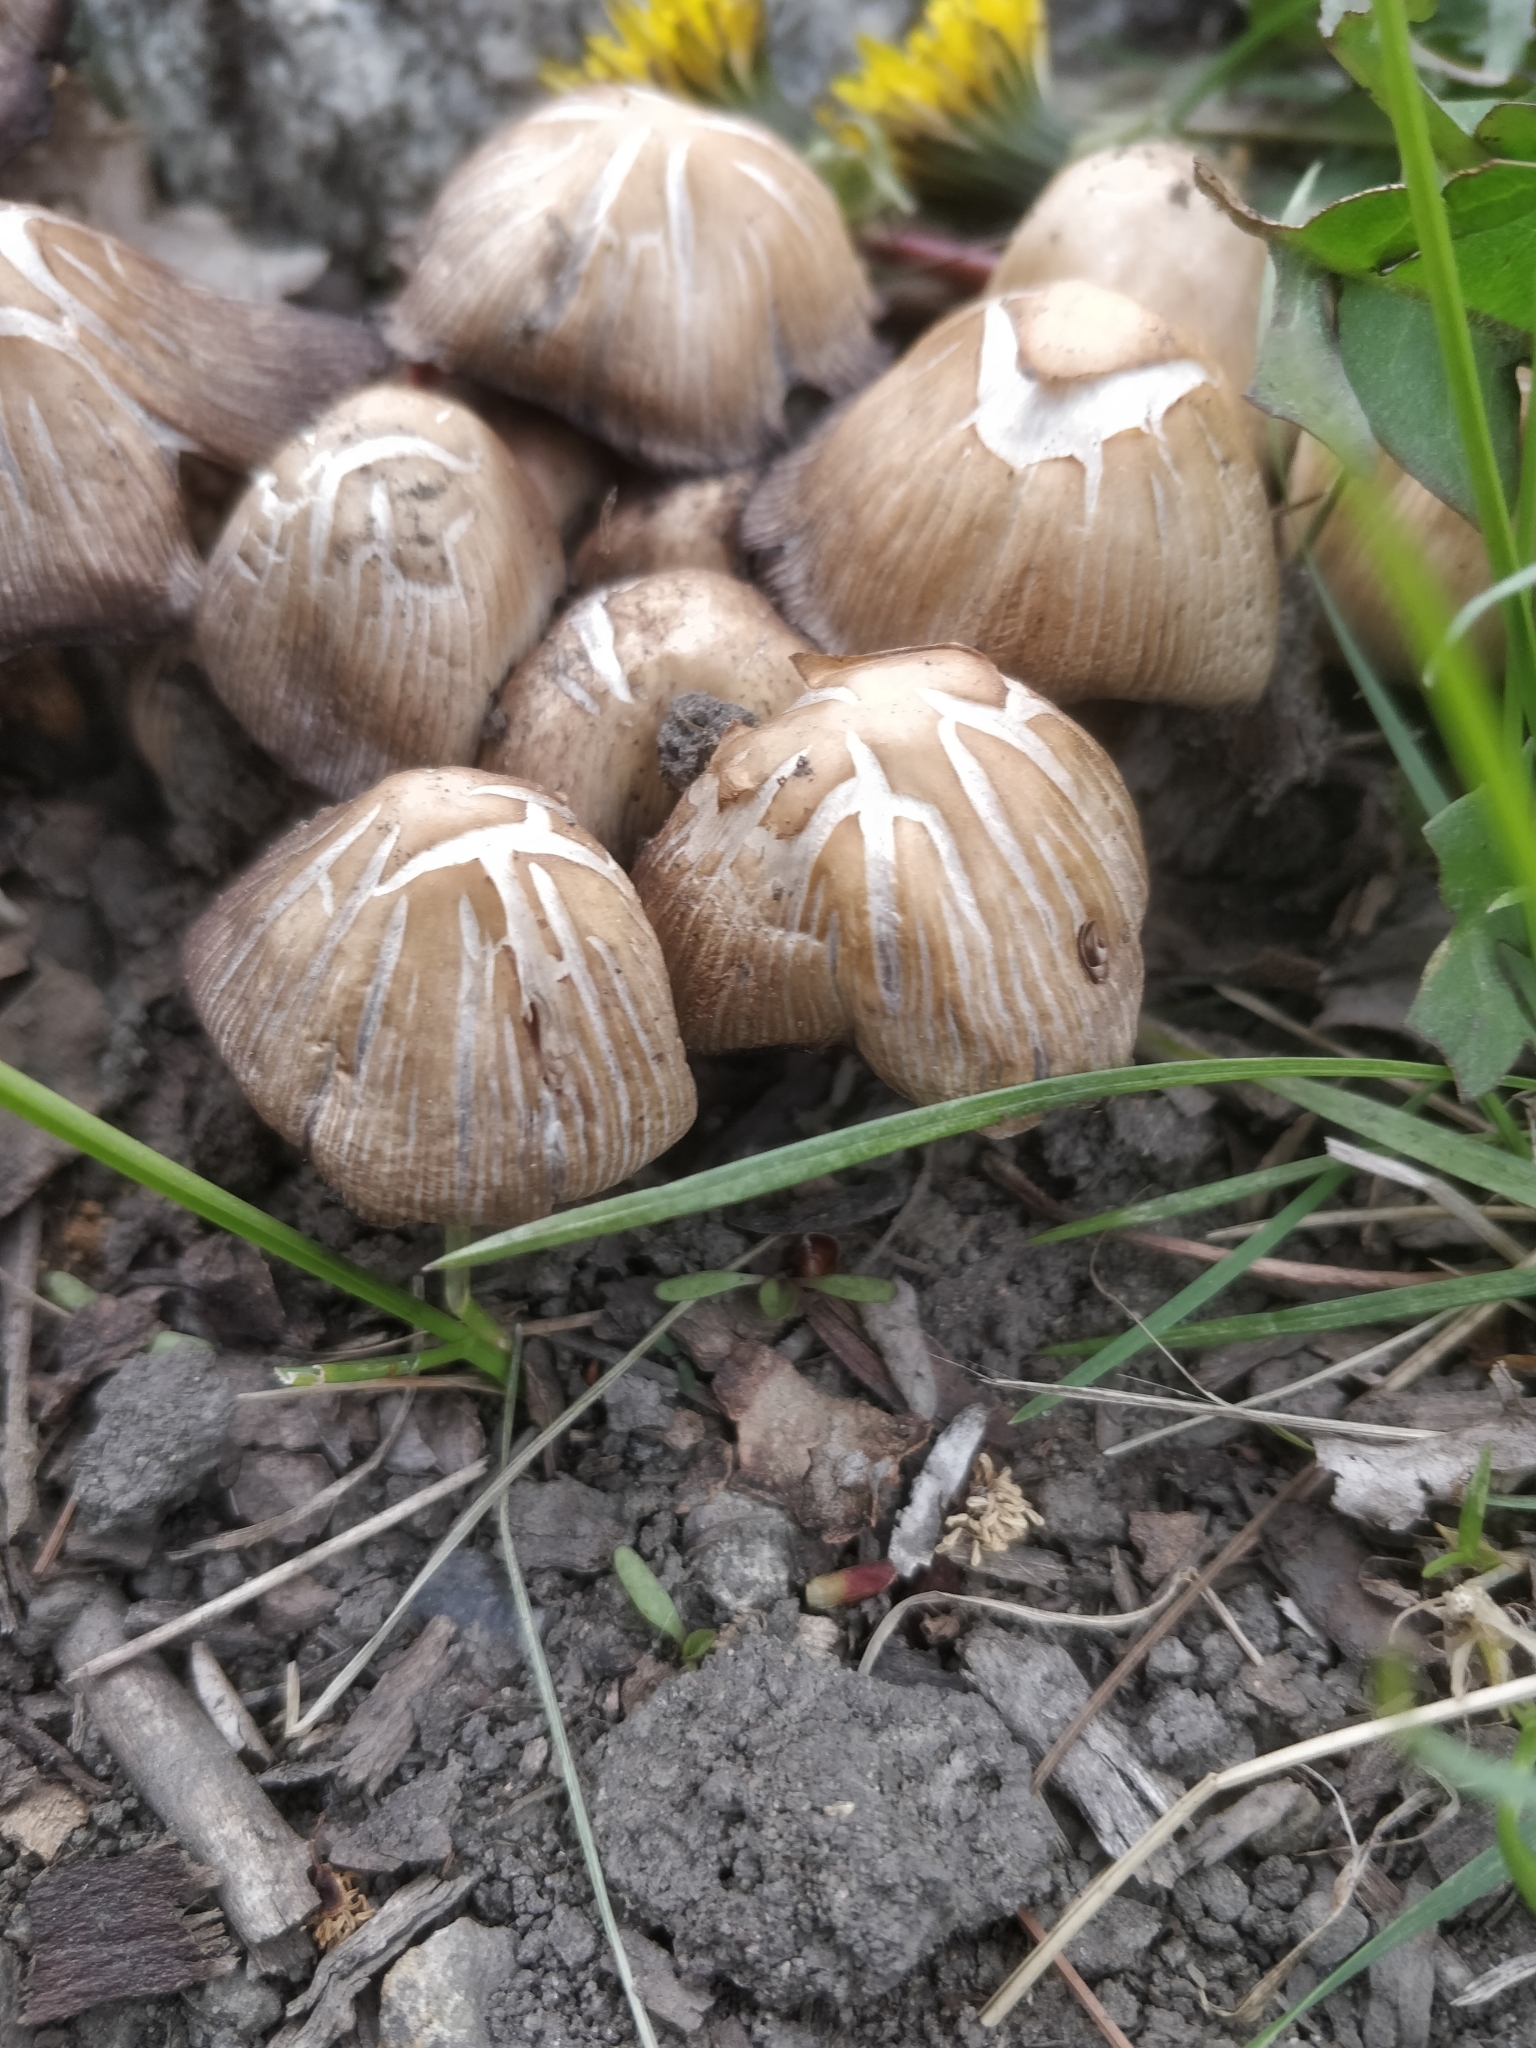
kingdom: Fungi
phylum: Basidiomycota
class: Agaricomycetes
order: Agaricales
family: Psathyrellaceae
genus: Coprinellus
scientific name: Coprinellus micaceus
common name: Glistening ink-cap
